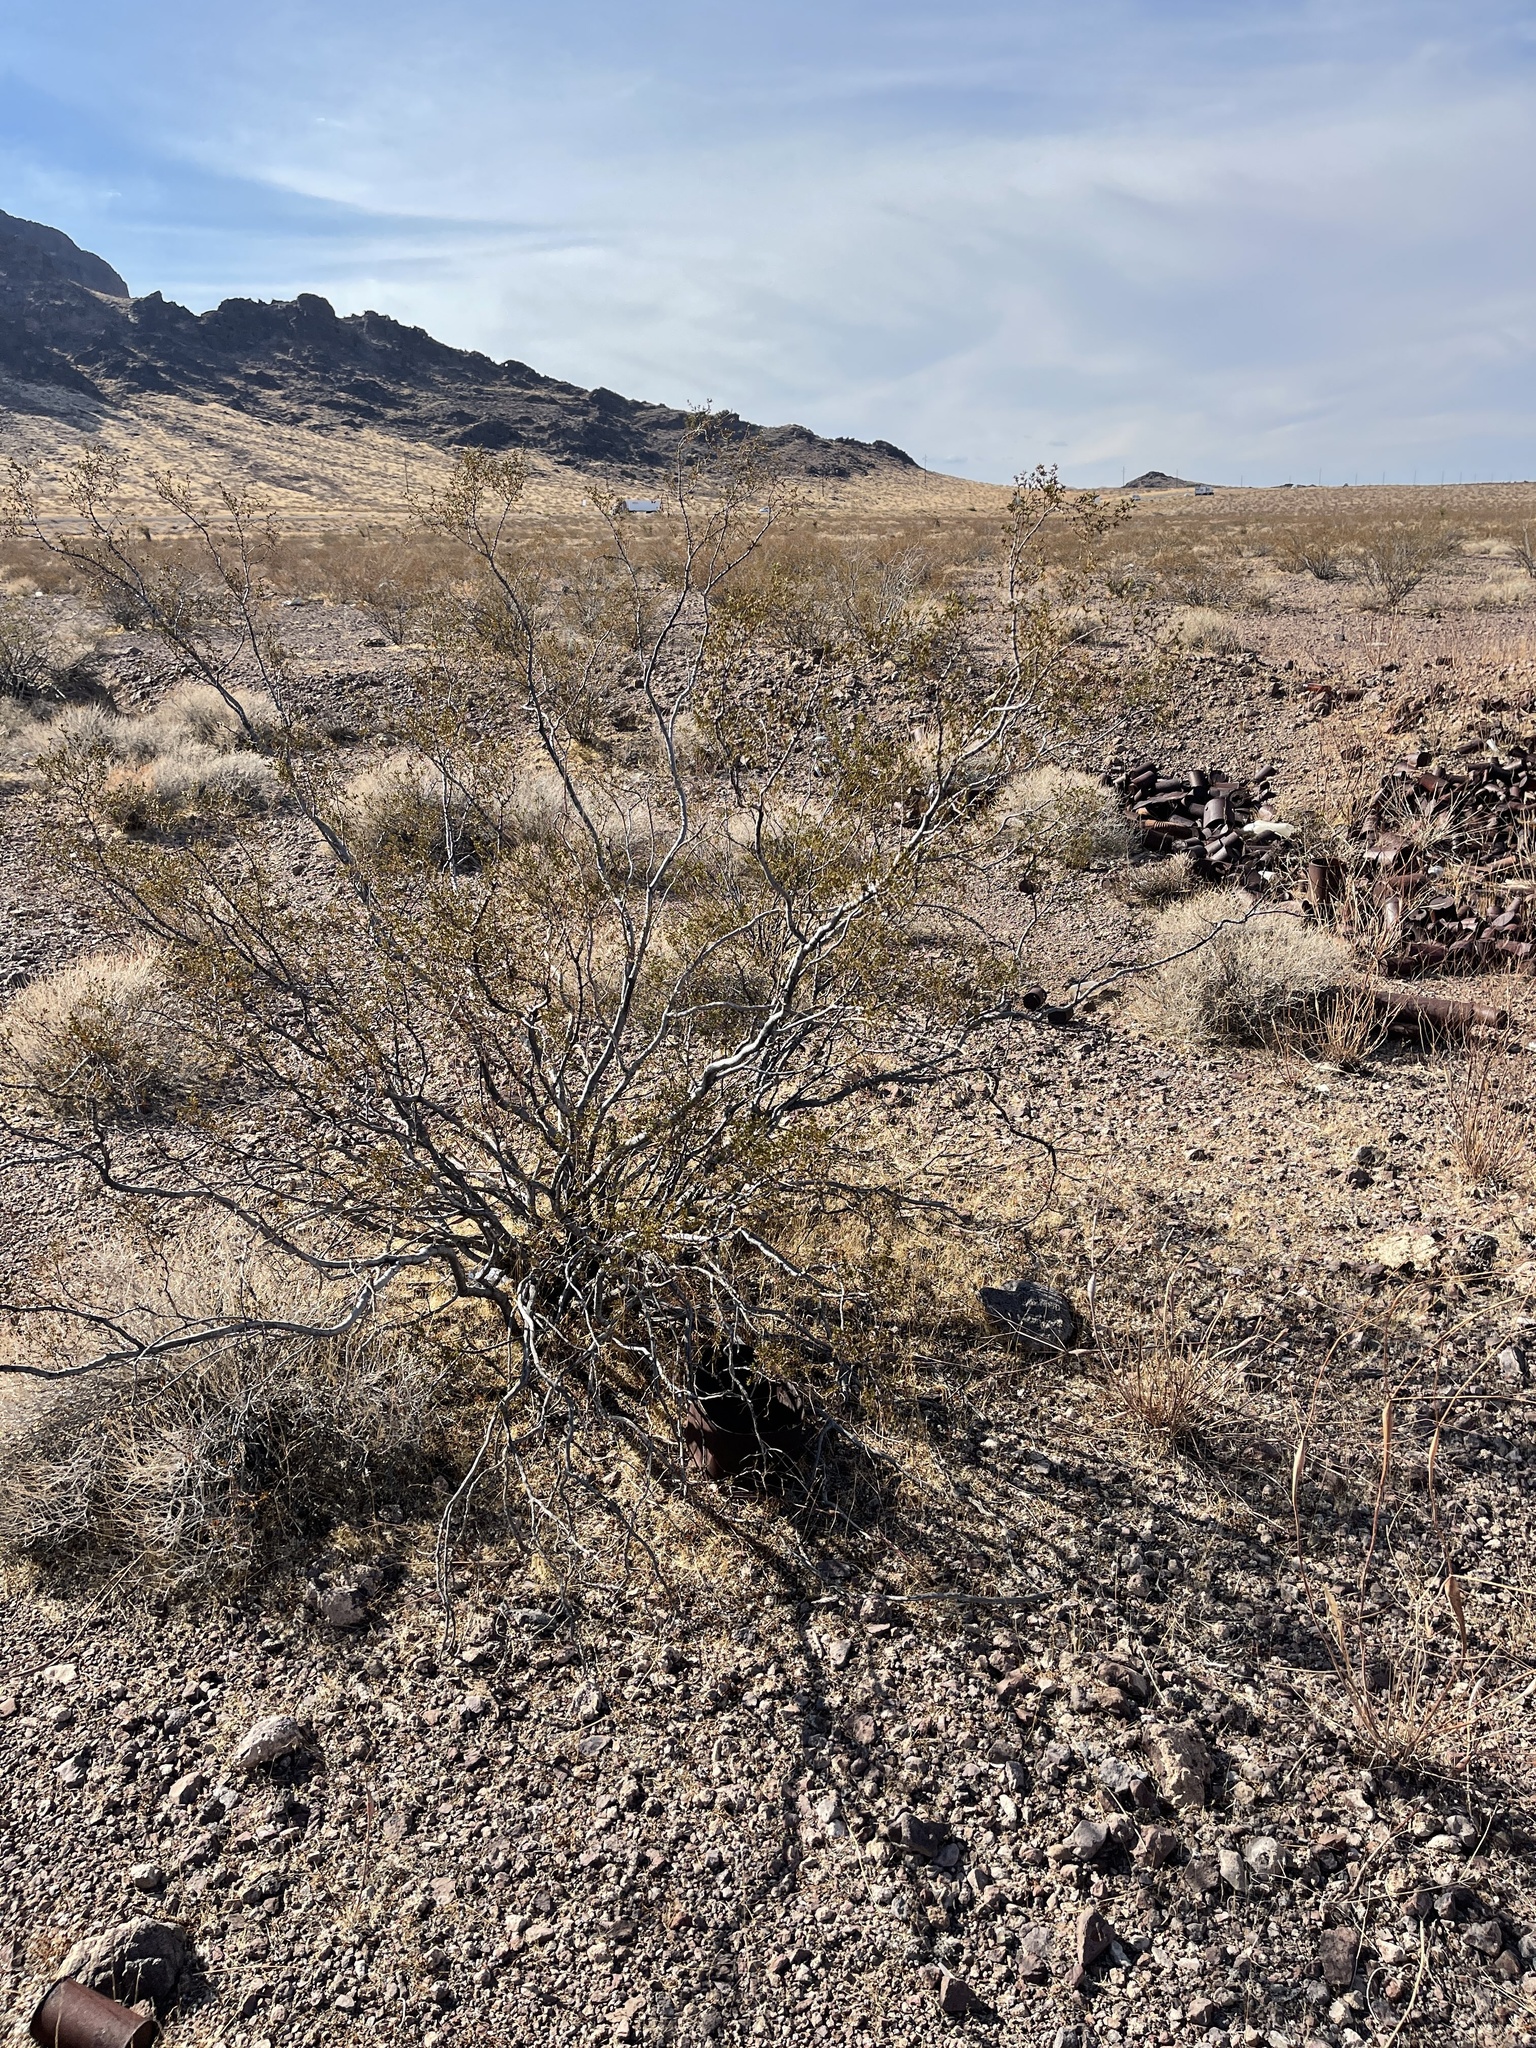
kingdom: Plantae
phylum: Tracheophyta
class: Magnoliopsida
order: Zygophyllales
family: Zygophyllaceae
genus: Larrea
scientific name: Larrea tridentata
